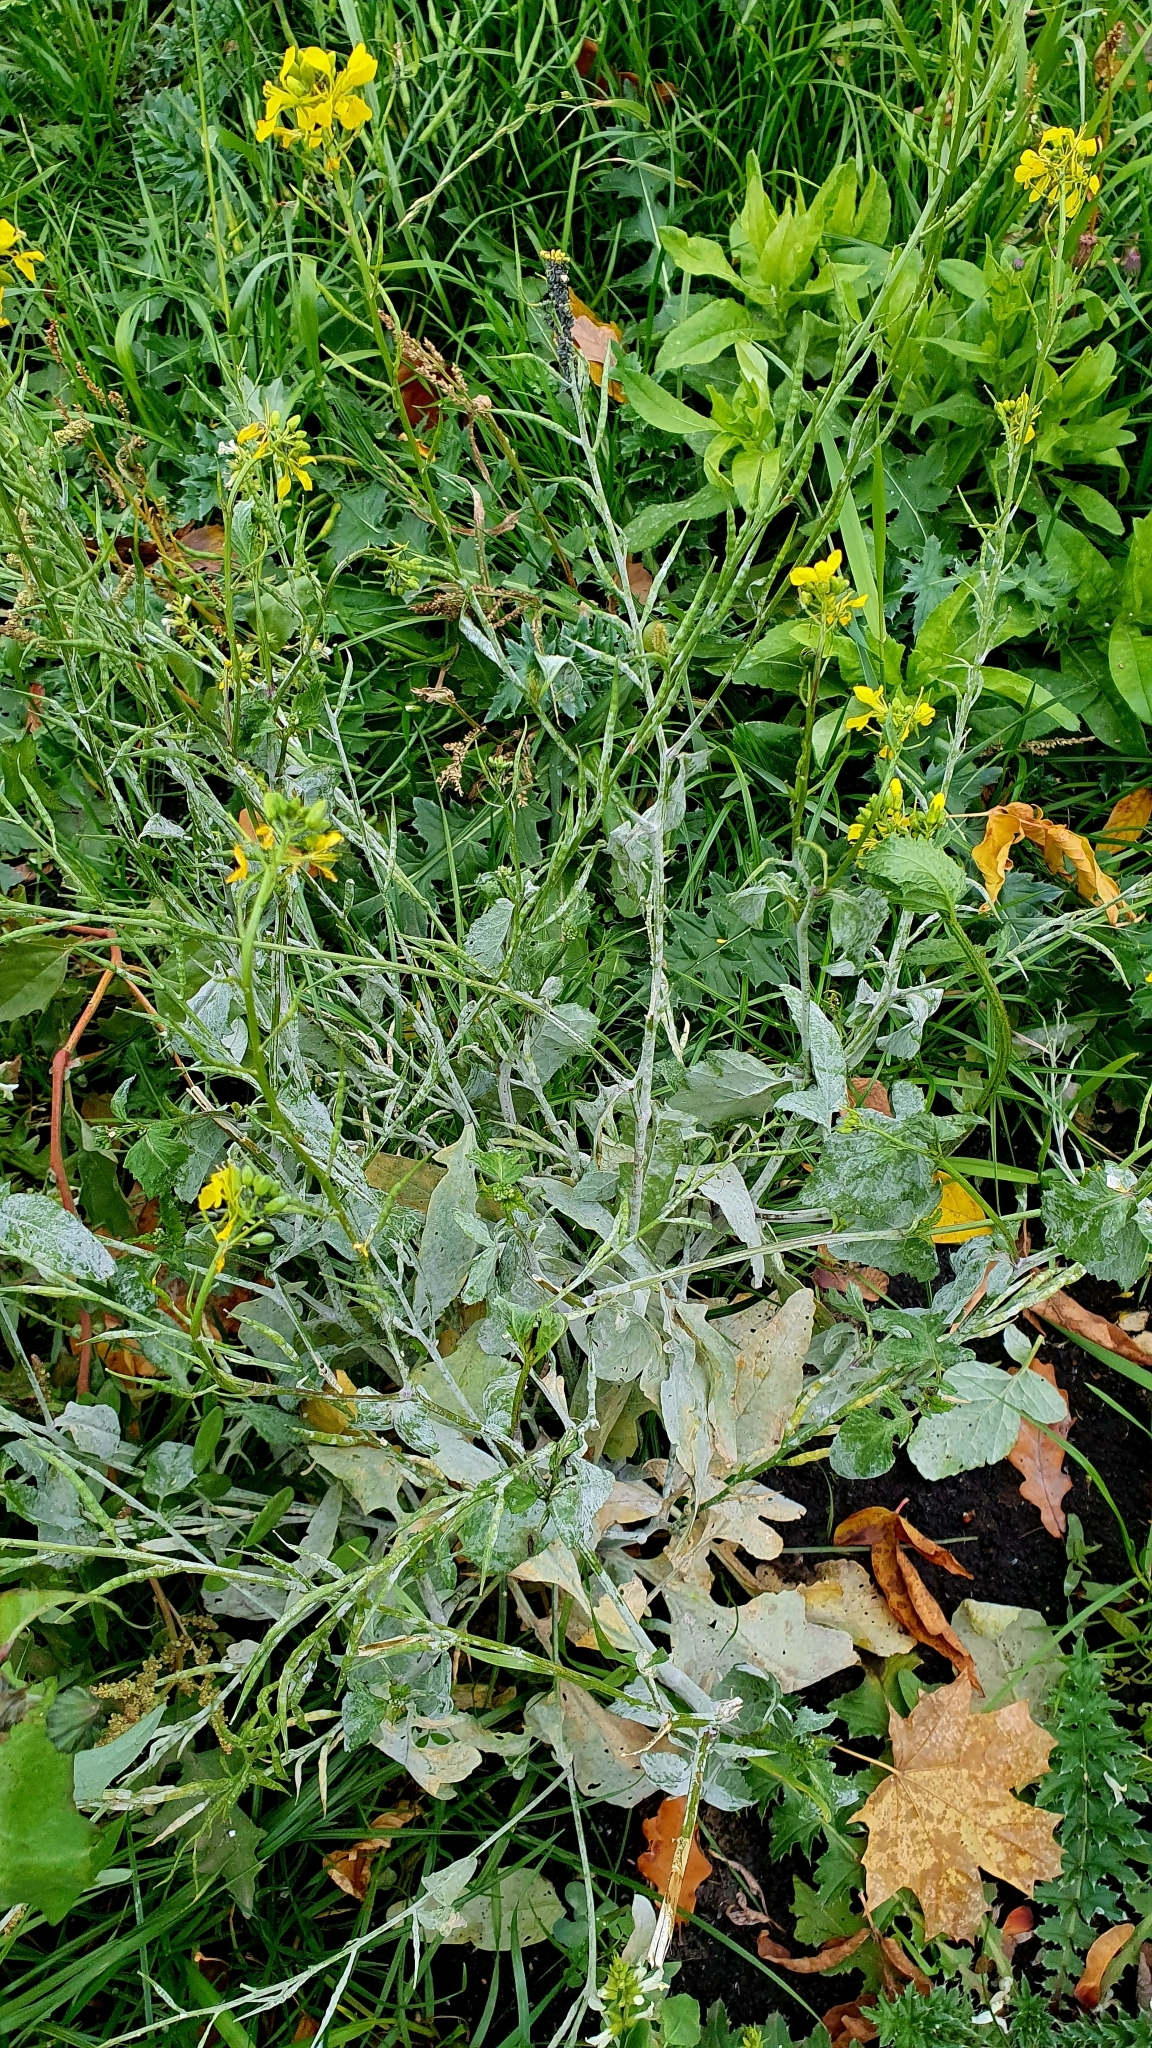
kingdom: Plantae
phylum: Tracheophyta
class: Magnoliopsida
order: Brassicales
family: Brassicaceae
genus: Sinapis
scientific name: Sinapis arvensis
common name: Charlock
